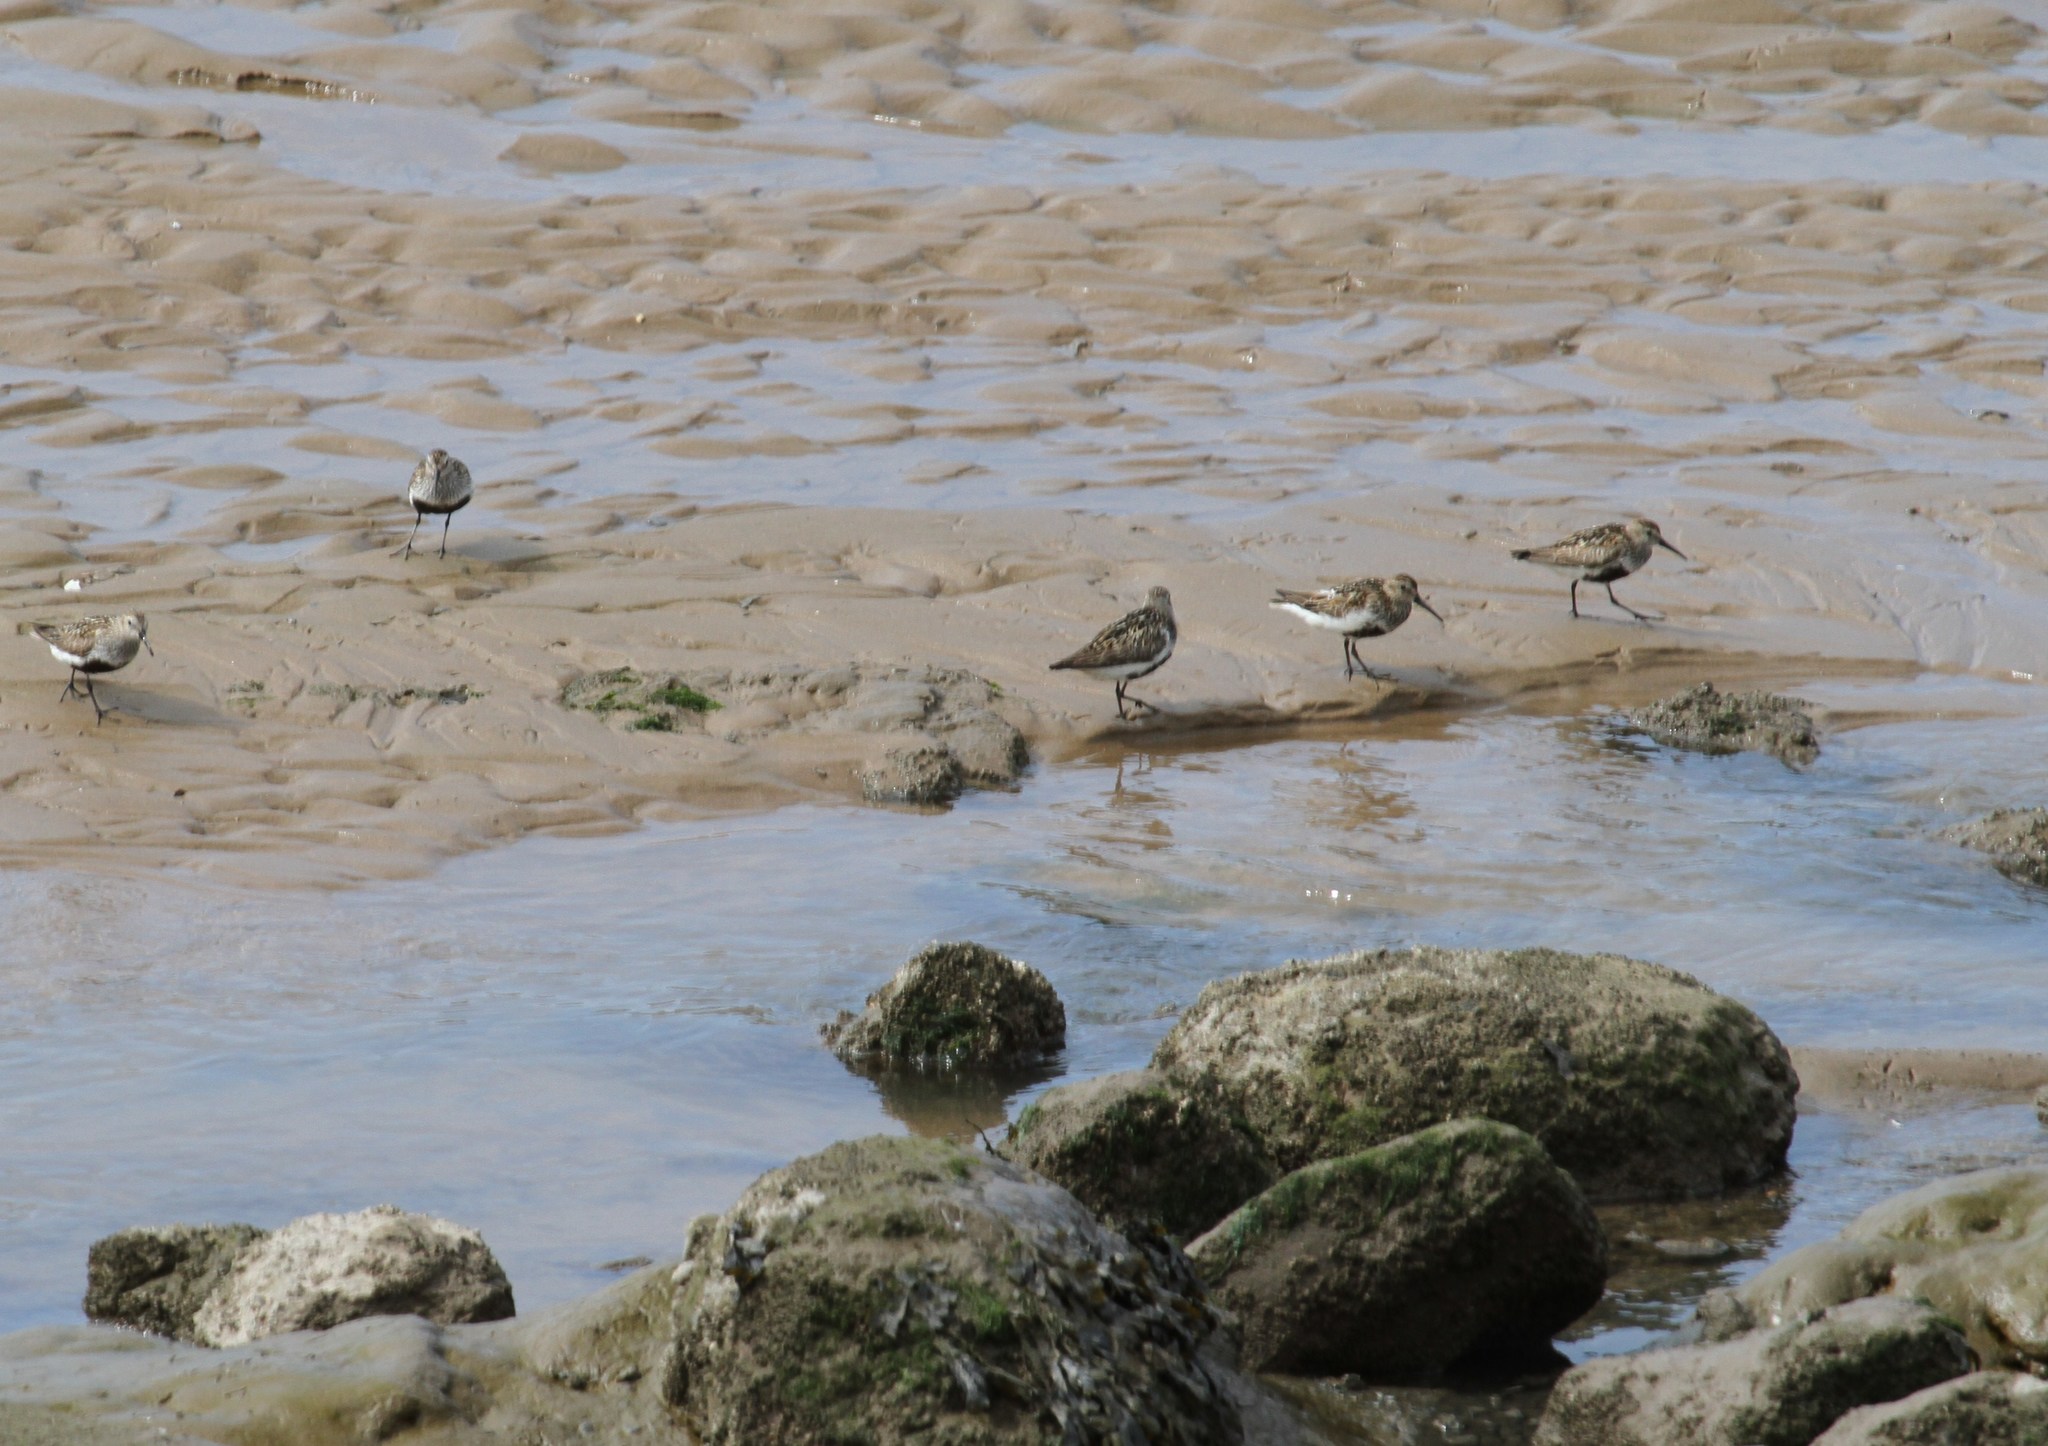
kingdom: Animalia
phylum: Chordata
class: Aves
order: Charadriiformes
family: Scolopacidae
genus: Calidris
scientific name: Calidris alpina
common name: Dunlin
